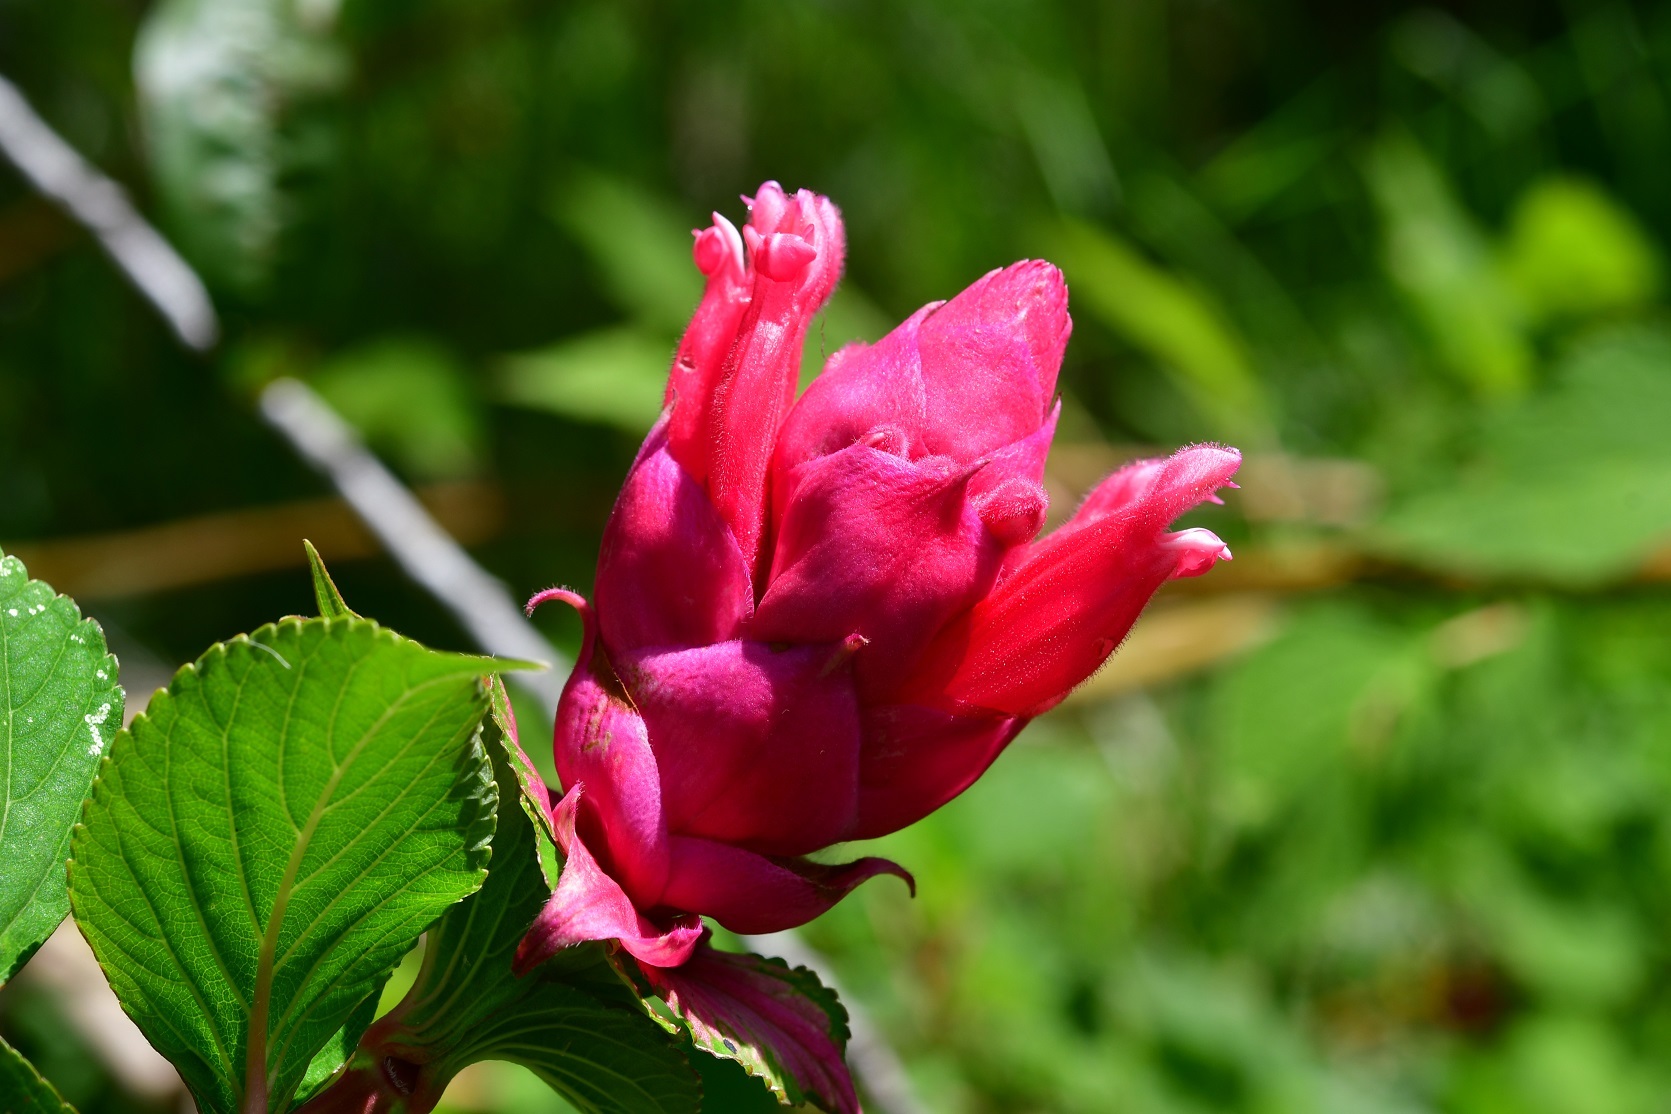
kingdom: Plantae
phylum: Tracheophyta
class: Magnoliopsida
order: Lamiales
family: Lamiaceae
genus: Salvia
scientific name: Salvia wagneriana
